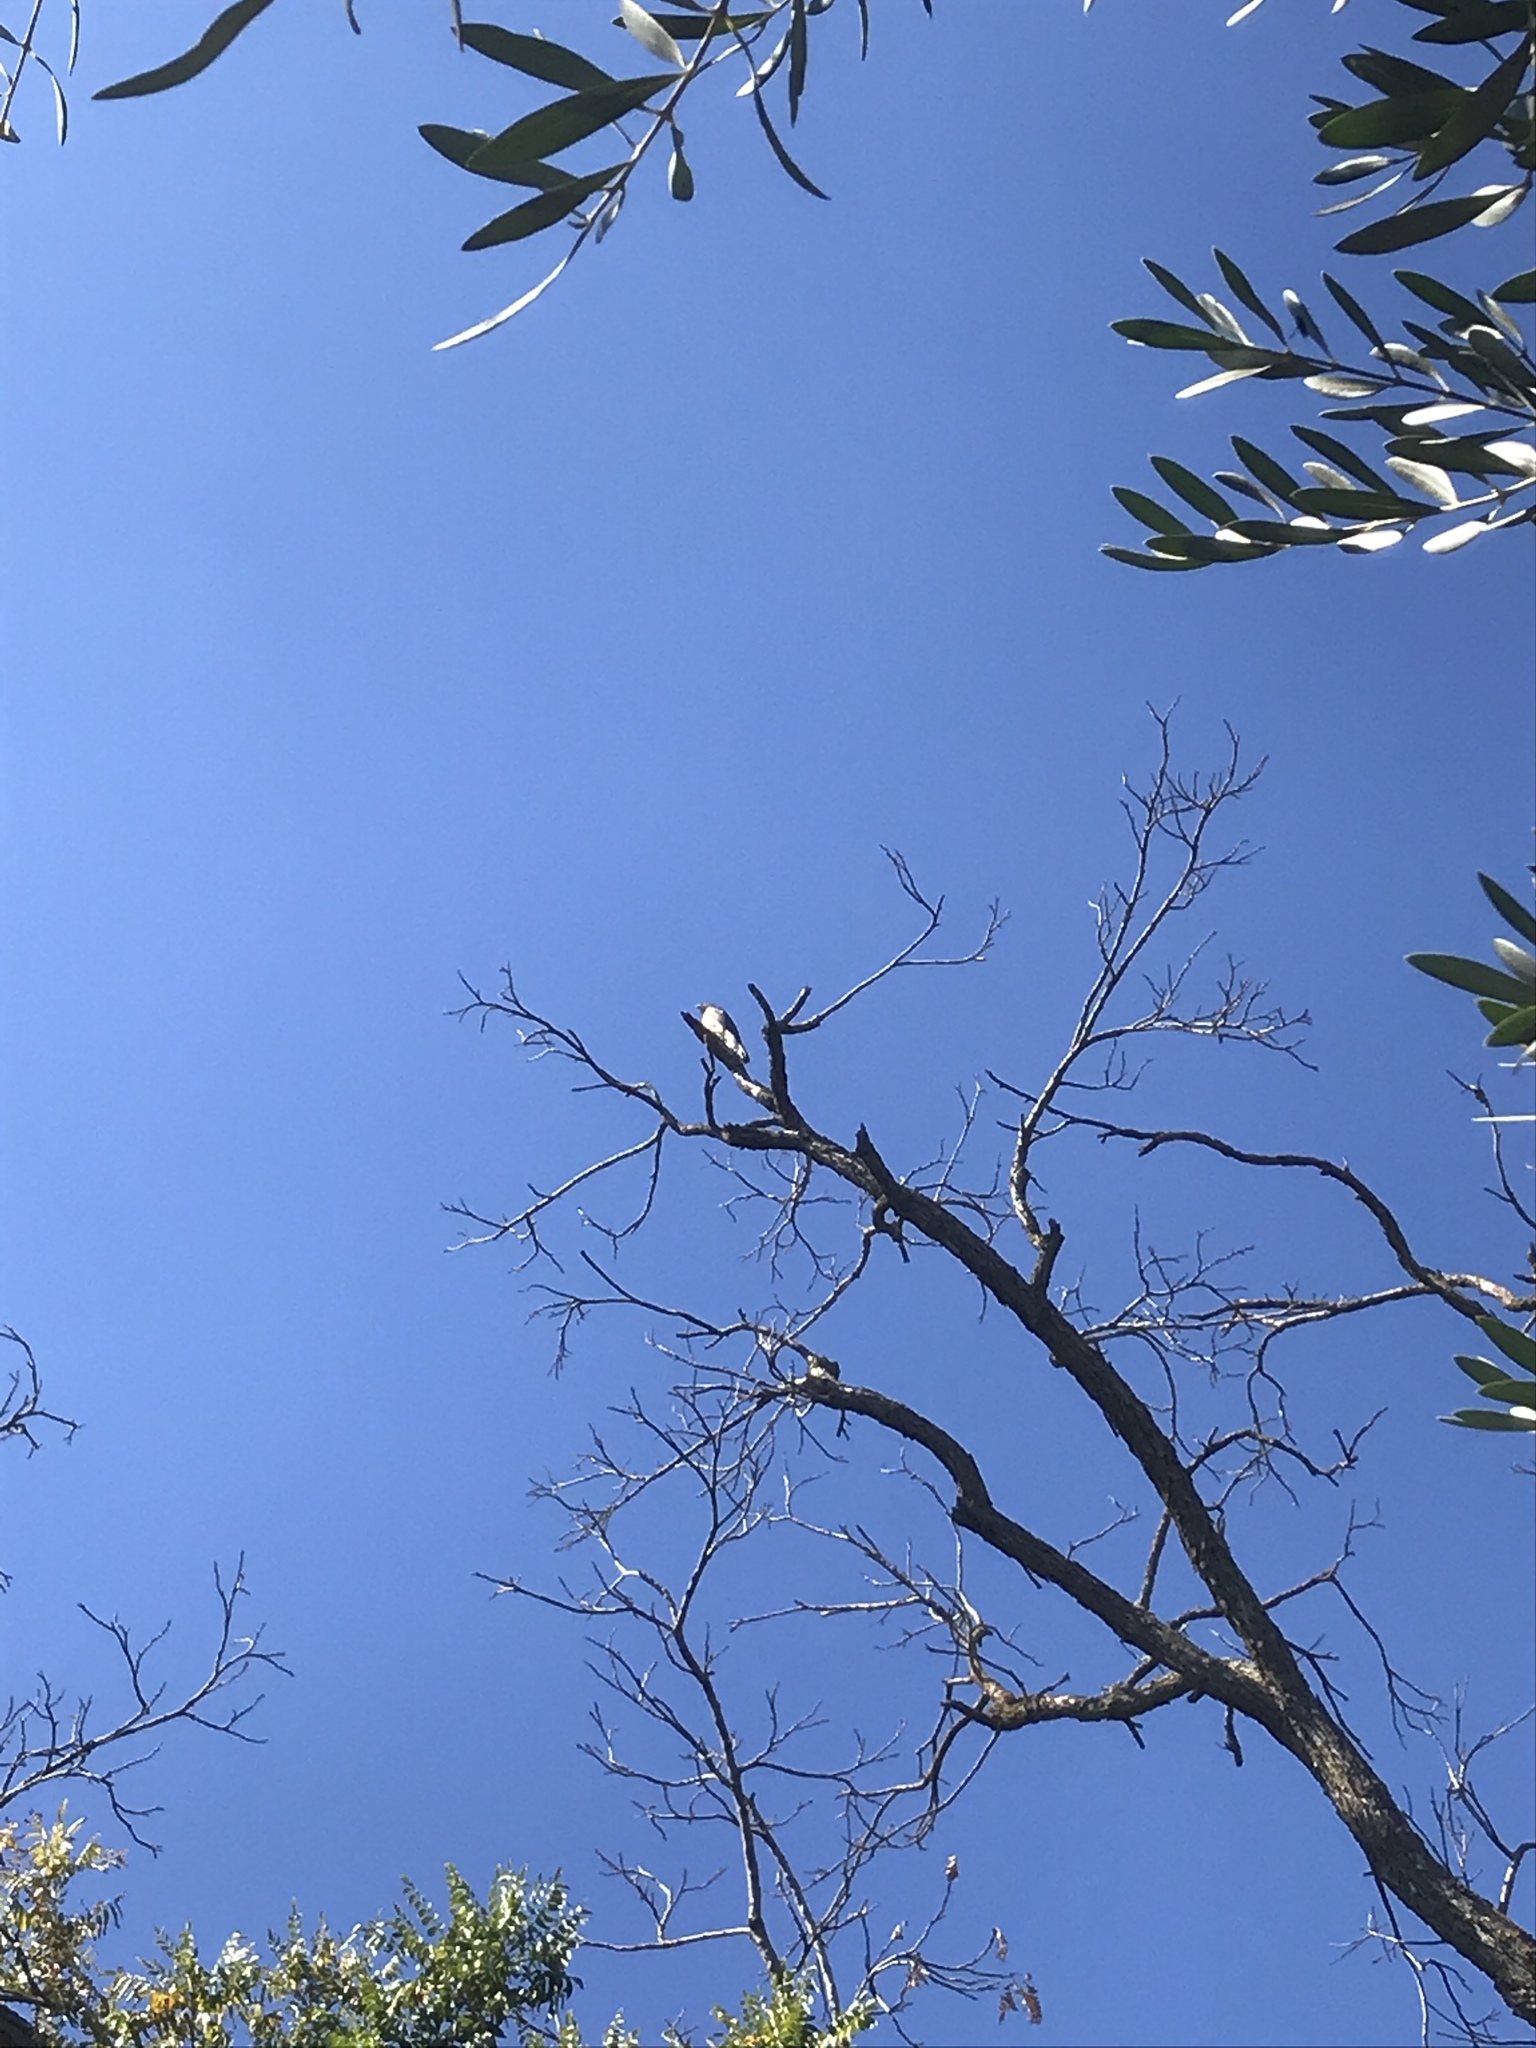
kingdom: Animalia
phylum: Chordata
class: Aves
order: Accipitriformes
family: Accipitridae
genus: Accipiter
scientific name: Accipiter cooperii
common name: Cooper's hawk
